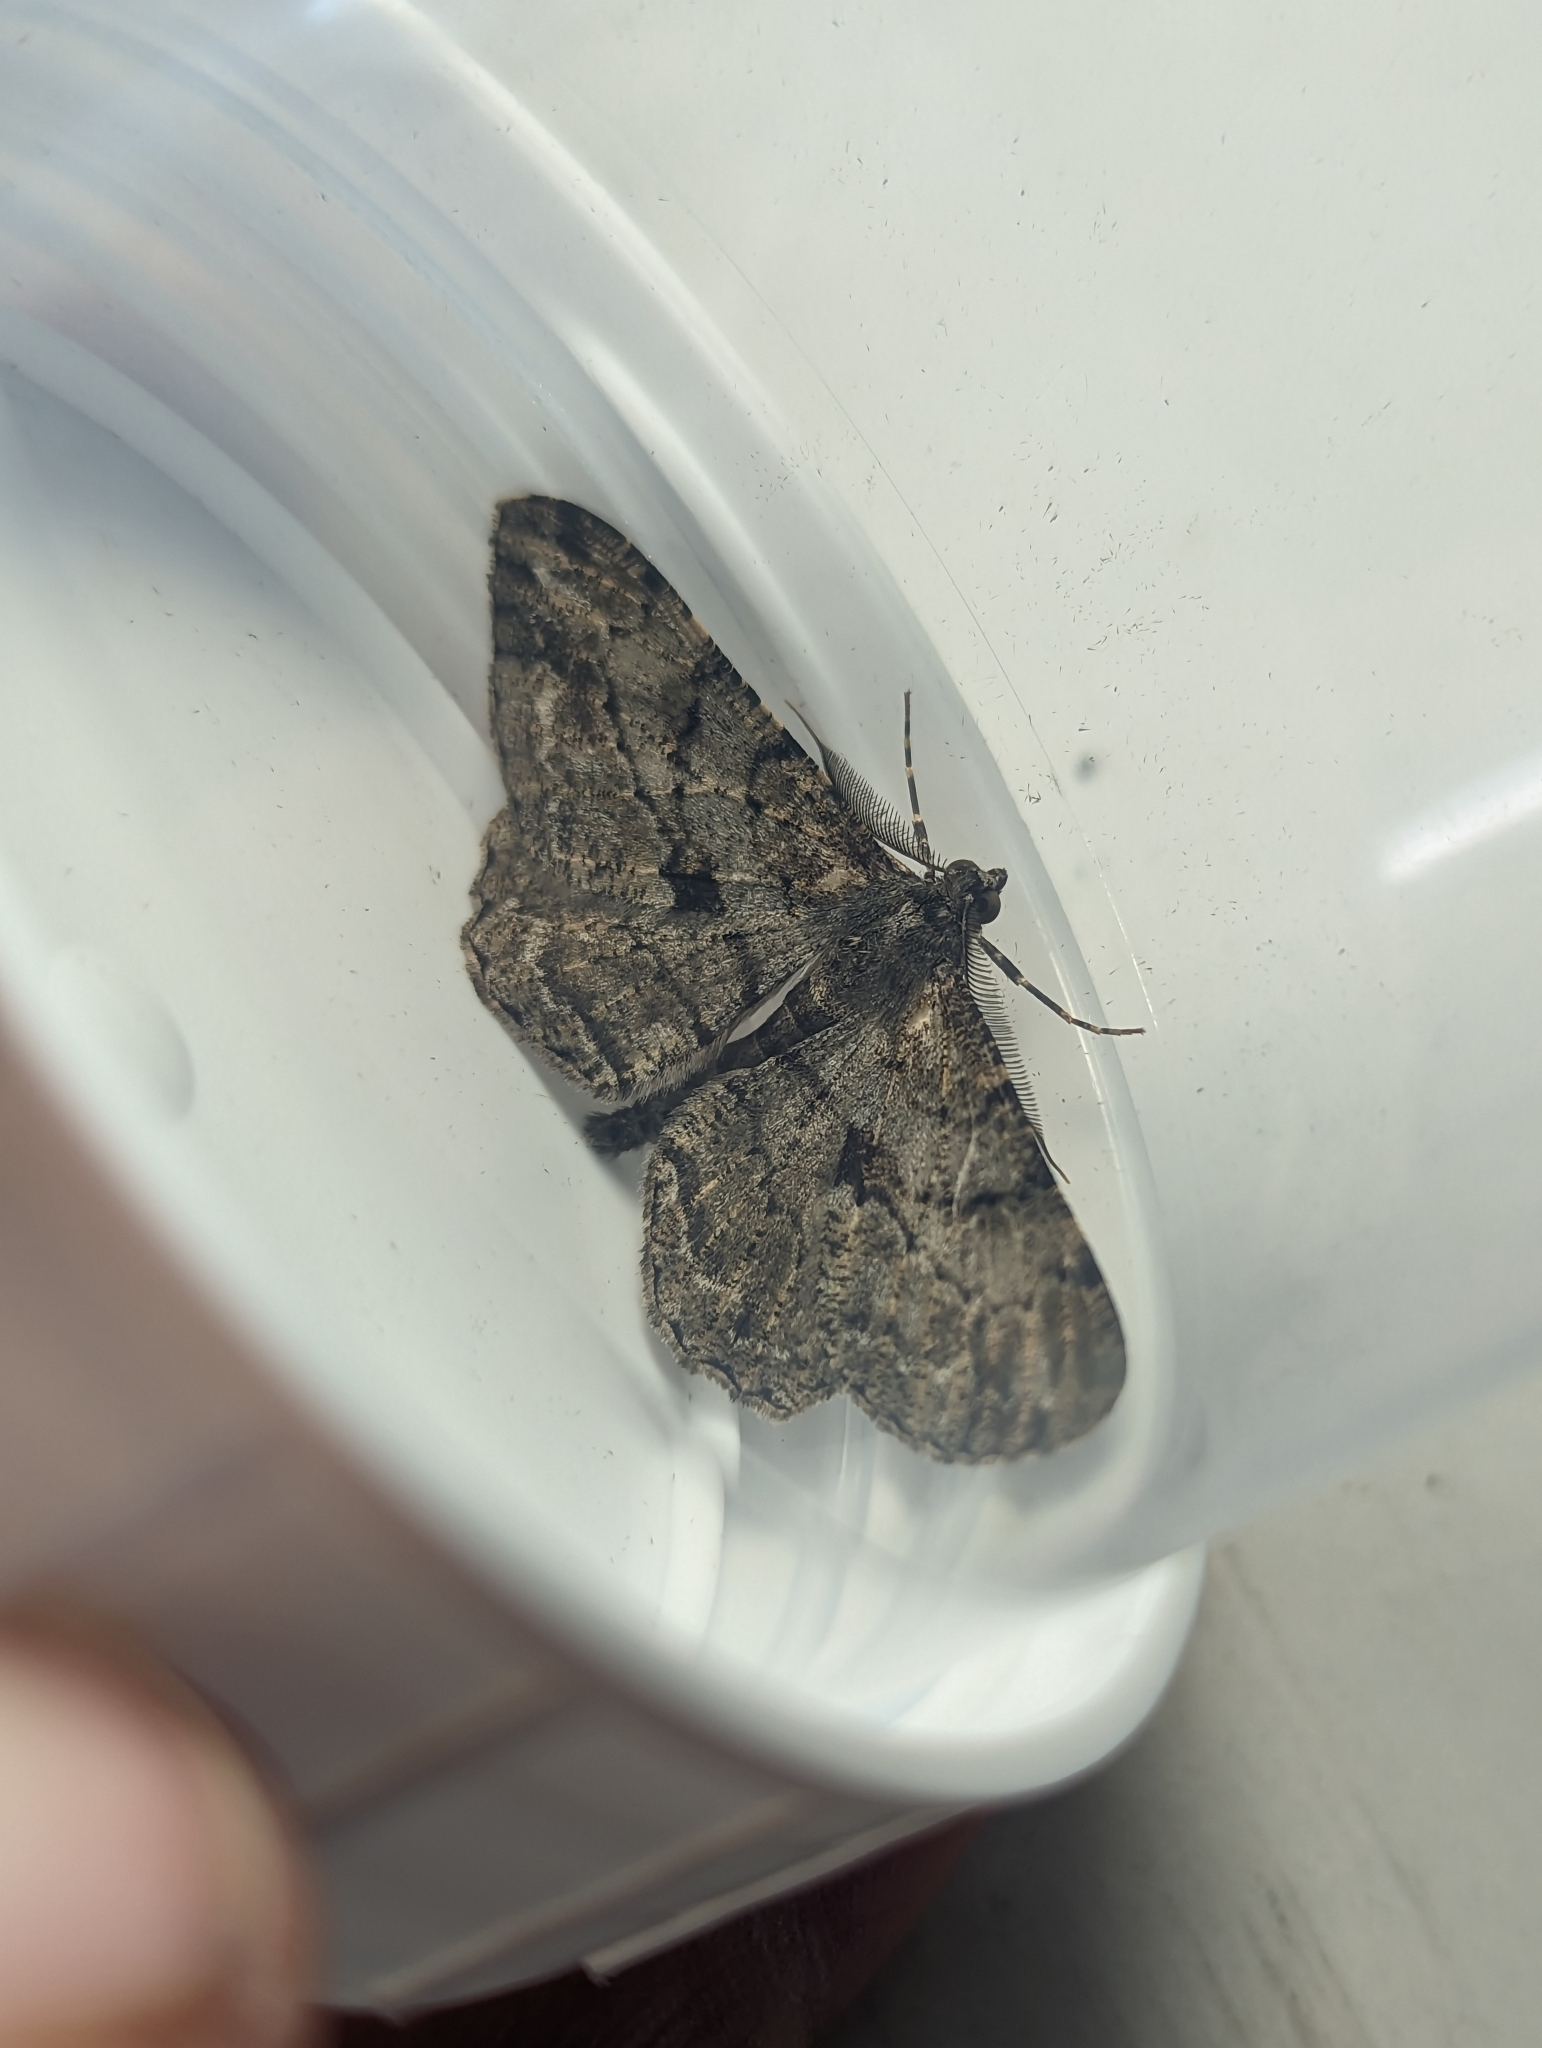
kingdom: Animalia
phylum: Arthropoda
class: Insecta
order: Lepidoptera
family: Geometridae
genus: Peribatodes
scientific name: Peribatodes rhomboidaria
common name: Willow beauty
